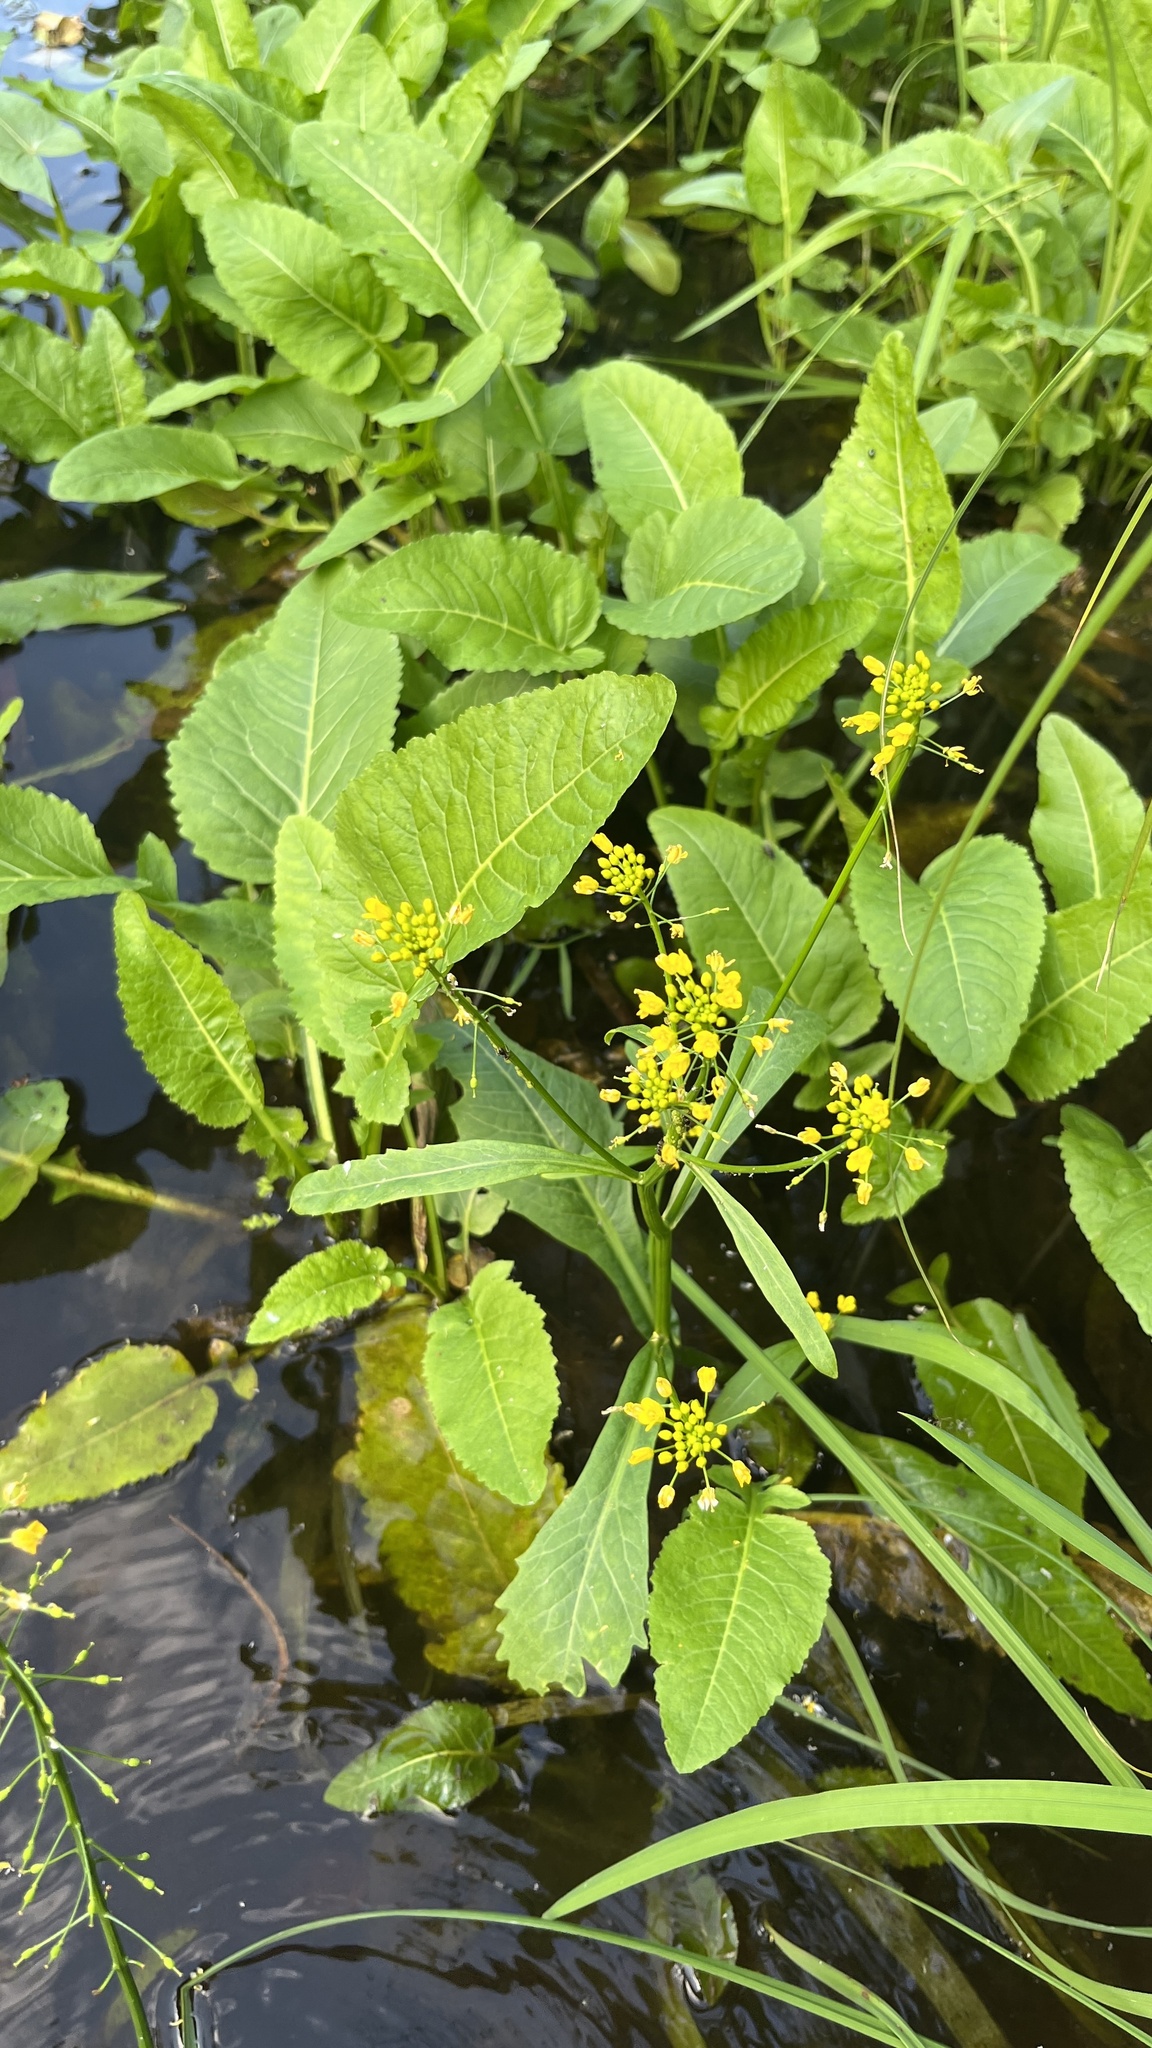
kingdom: Plantae
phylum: Tracheophyta
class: Magnoliopsida
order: Brassicales
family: Brassicaceae
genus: Rorippa
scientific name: Rorippa amphibia
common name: Great yellow-cress
